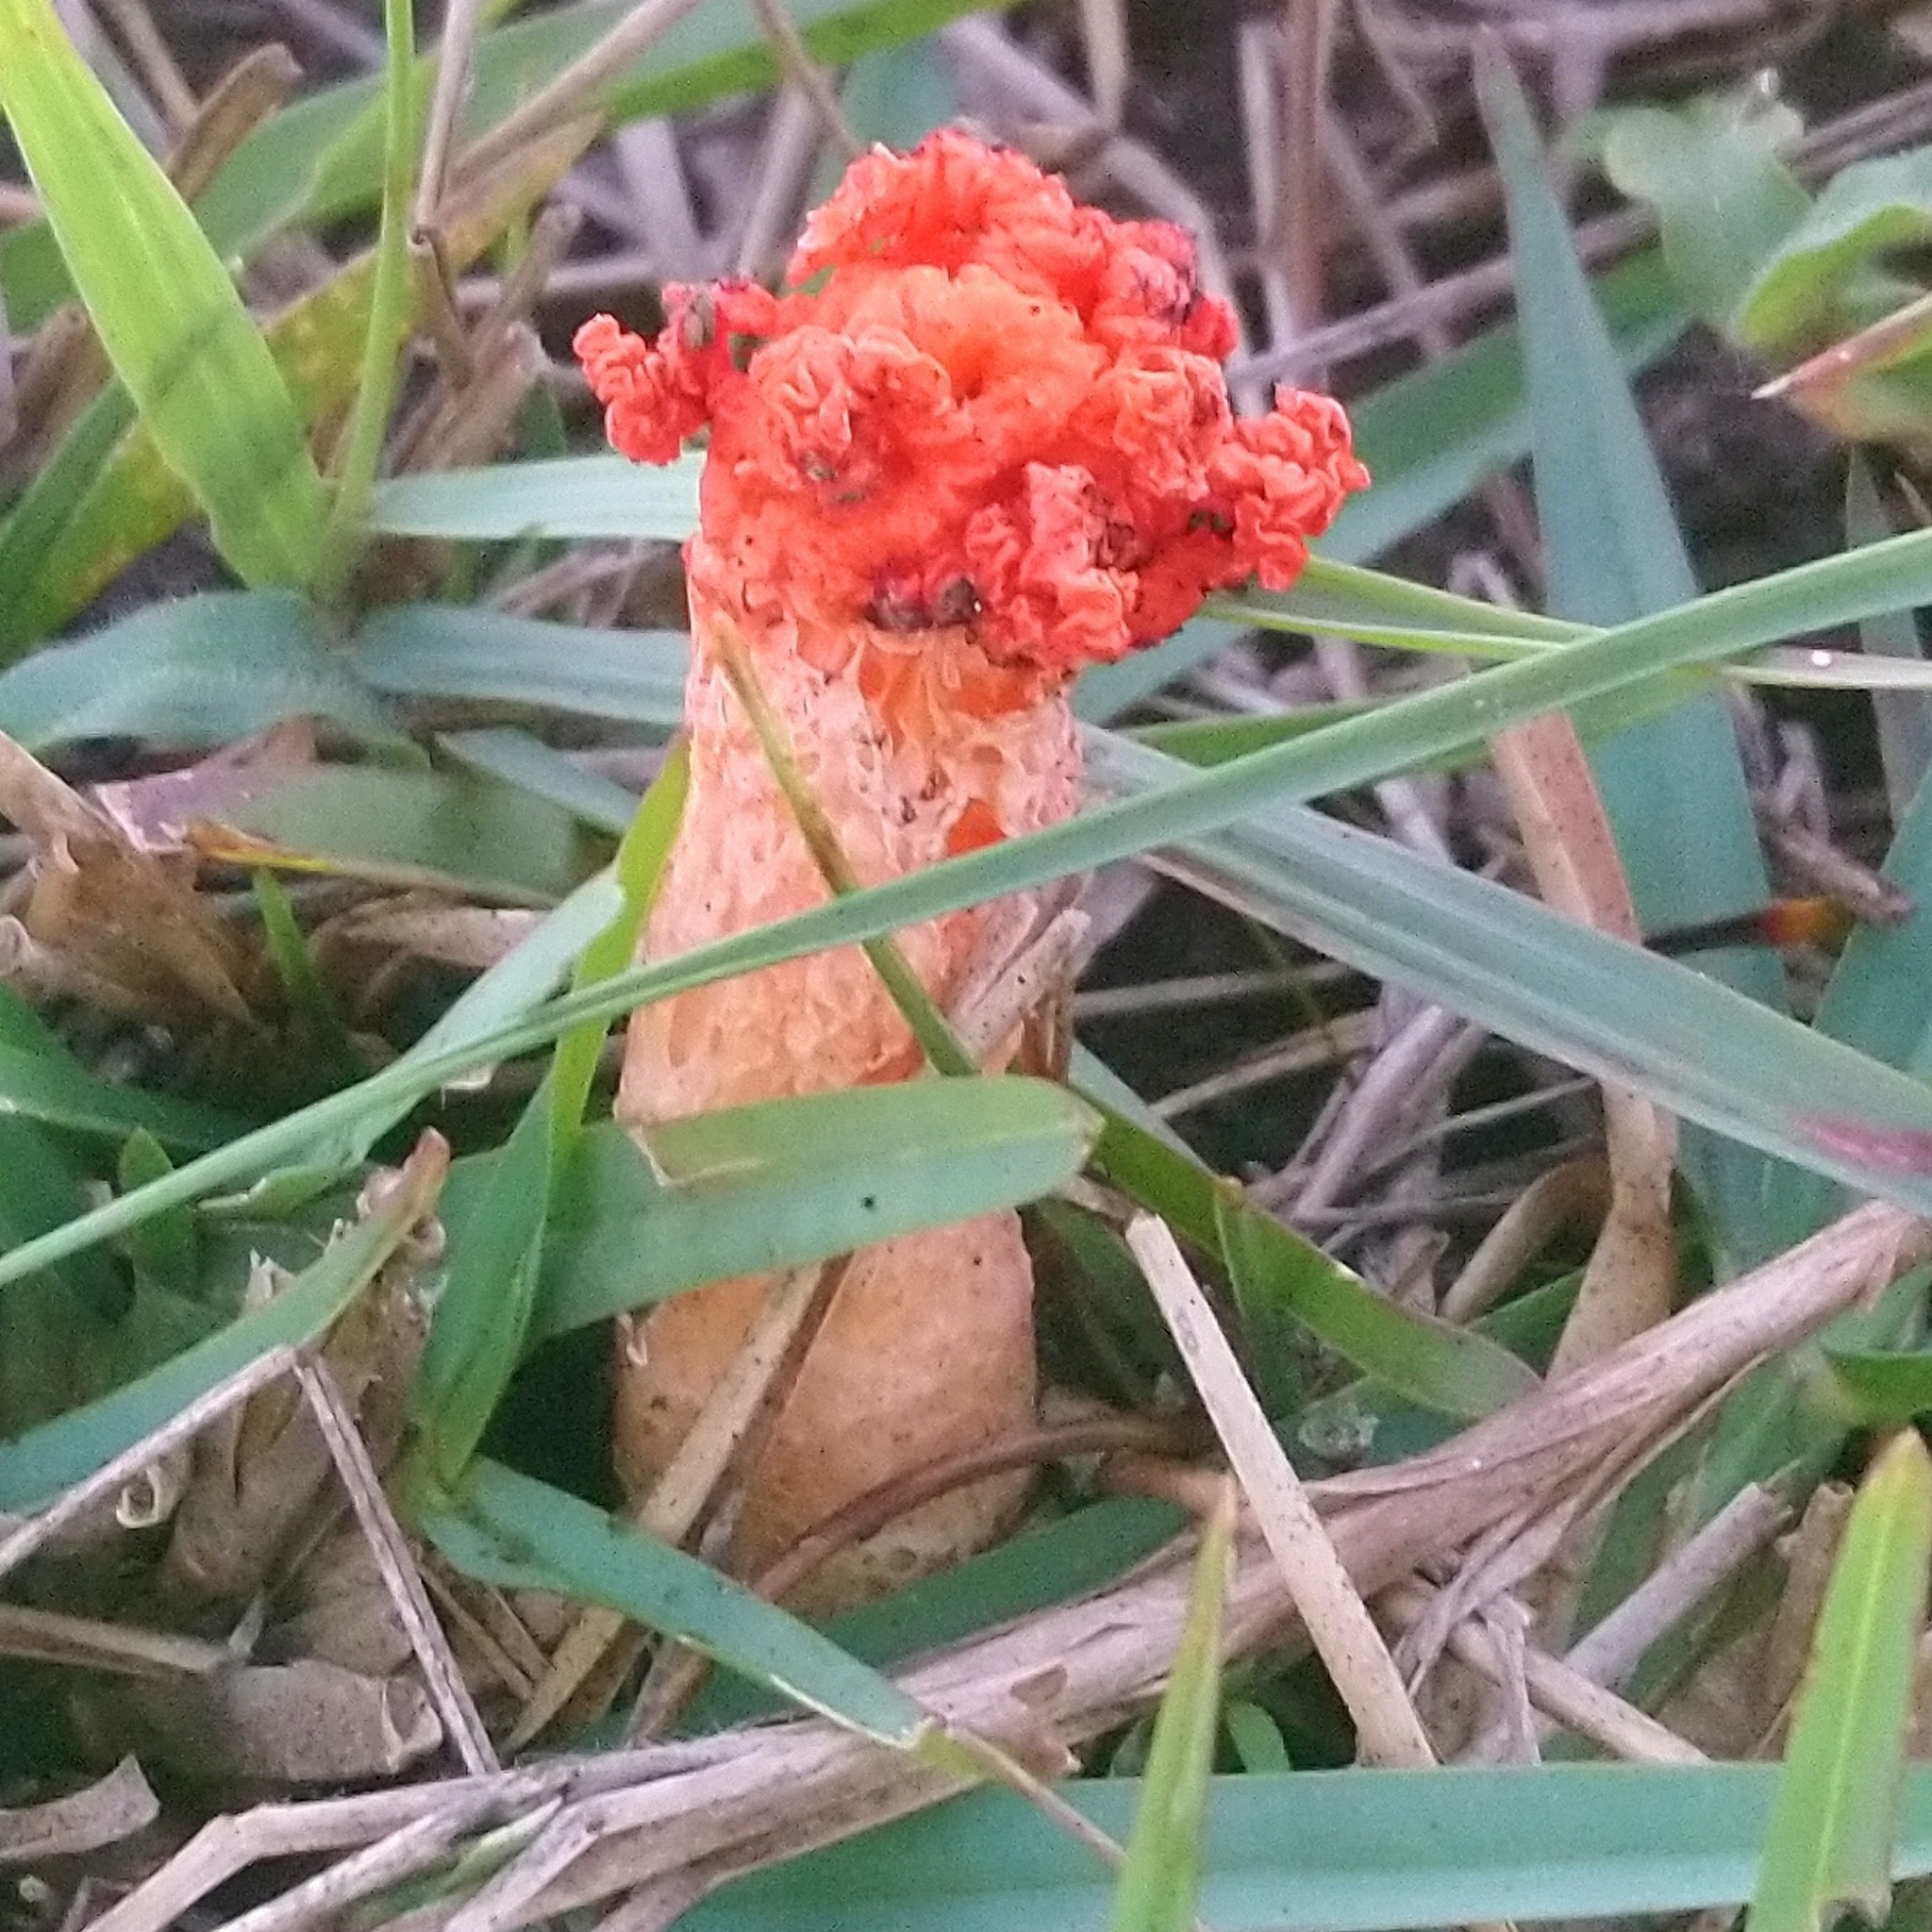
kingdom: Fungi
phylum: Basidiomycota
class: Agaricomycetes
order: Phallales
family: Phallaceae
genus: Lysurus
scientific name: Lysurus corallocephalus
